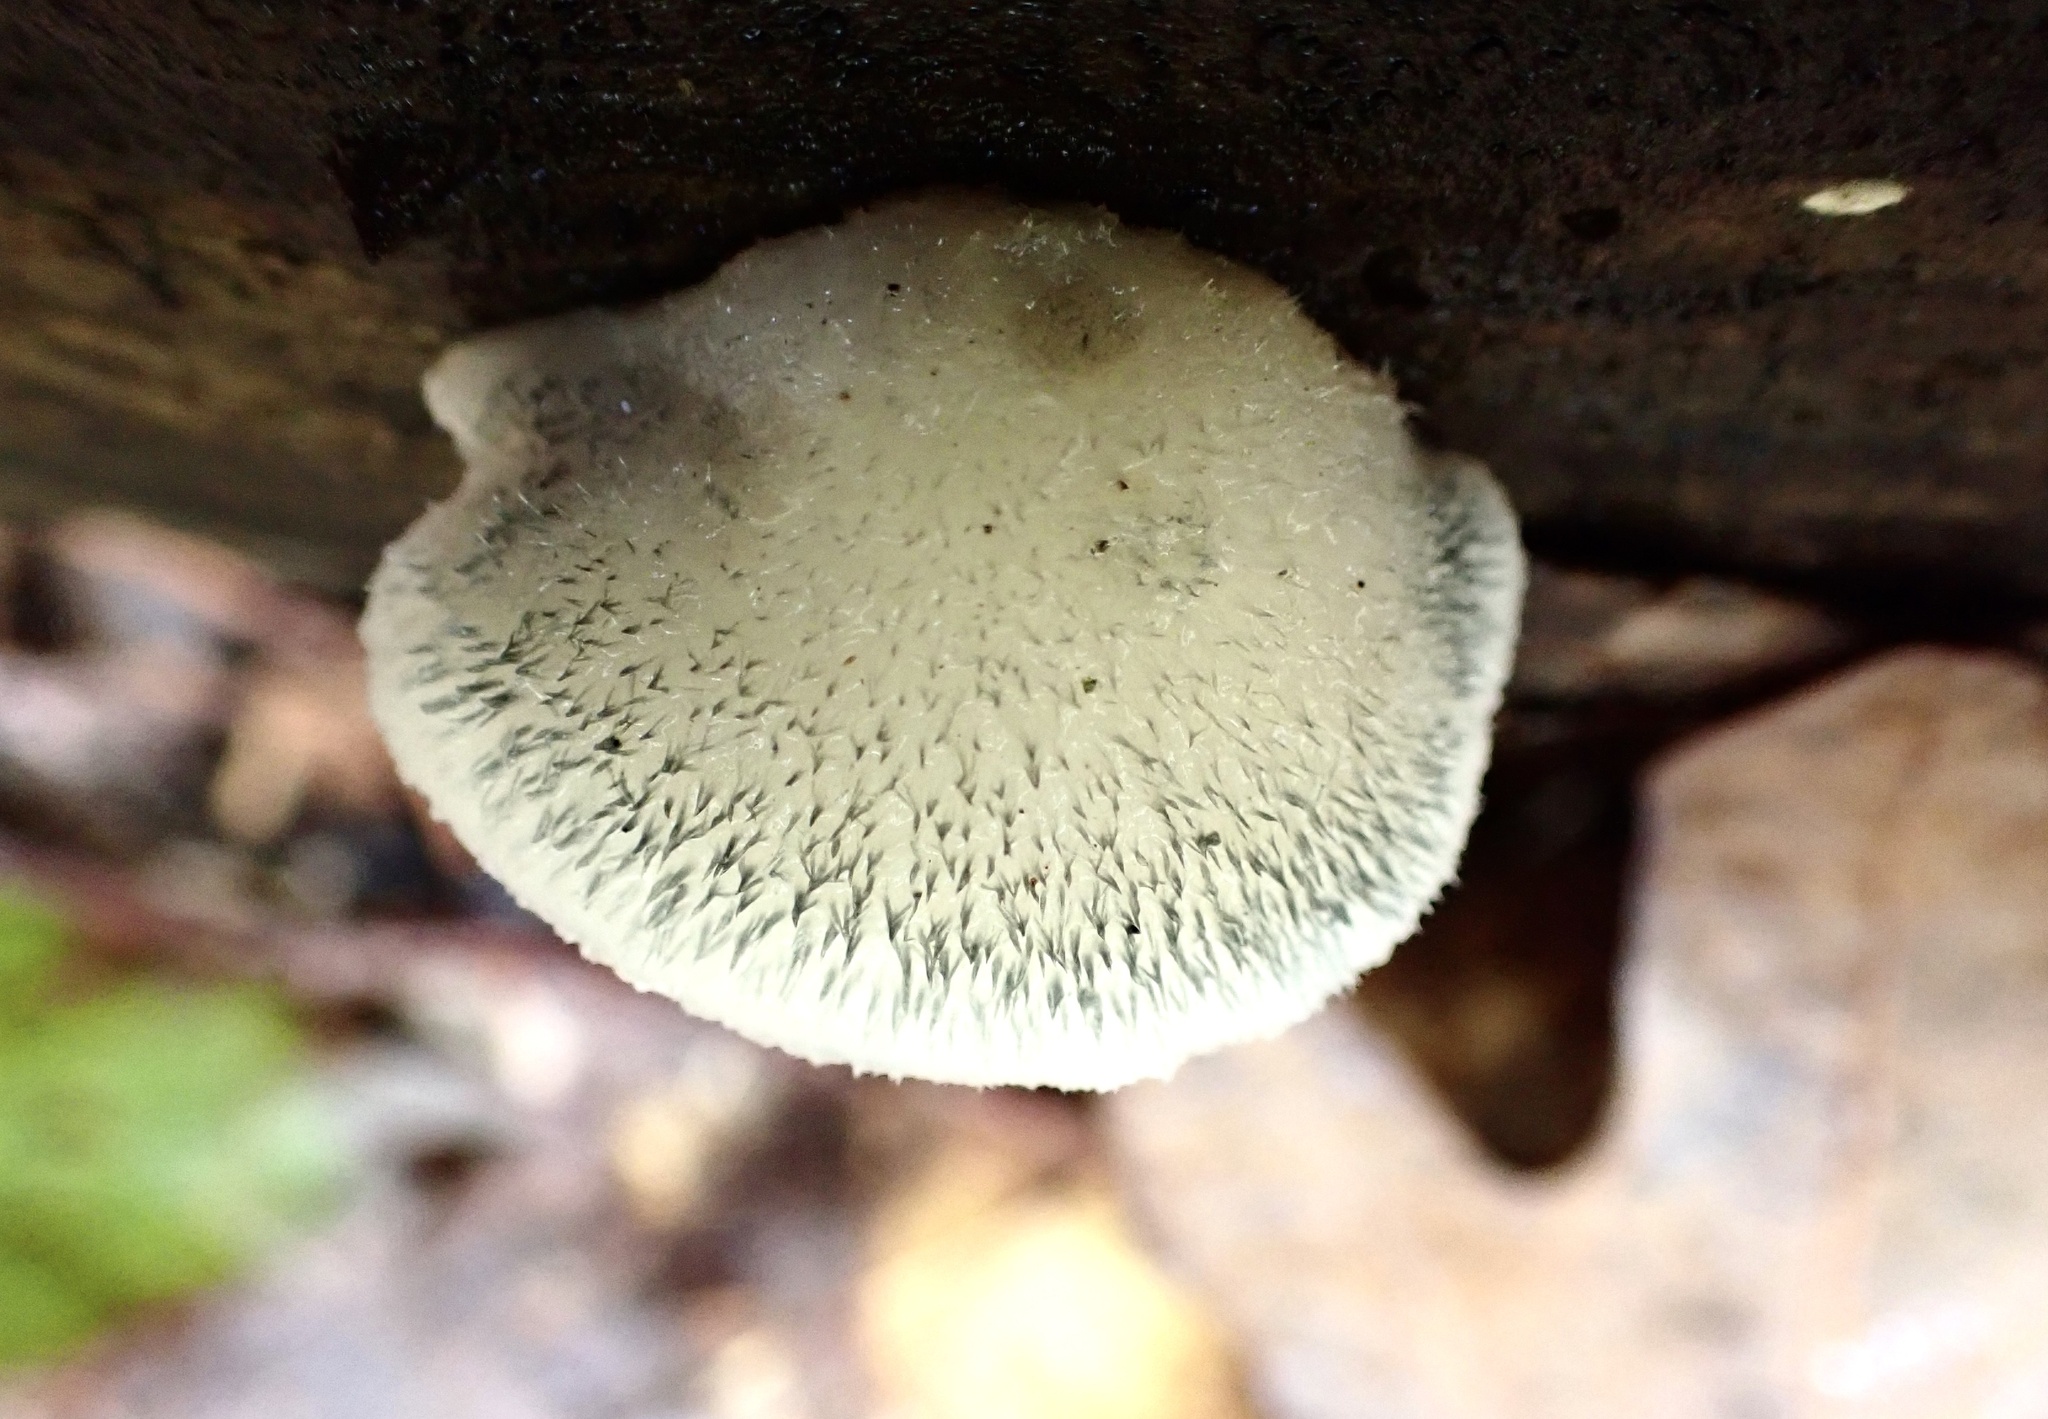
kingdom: Fungi
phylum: Basidiomycota
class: Agaricomycetes
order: Polyporales
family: Polyporaceae
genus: Cyanosporus
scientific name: Cyanosporus livens
